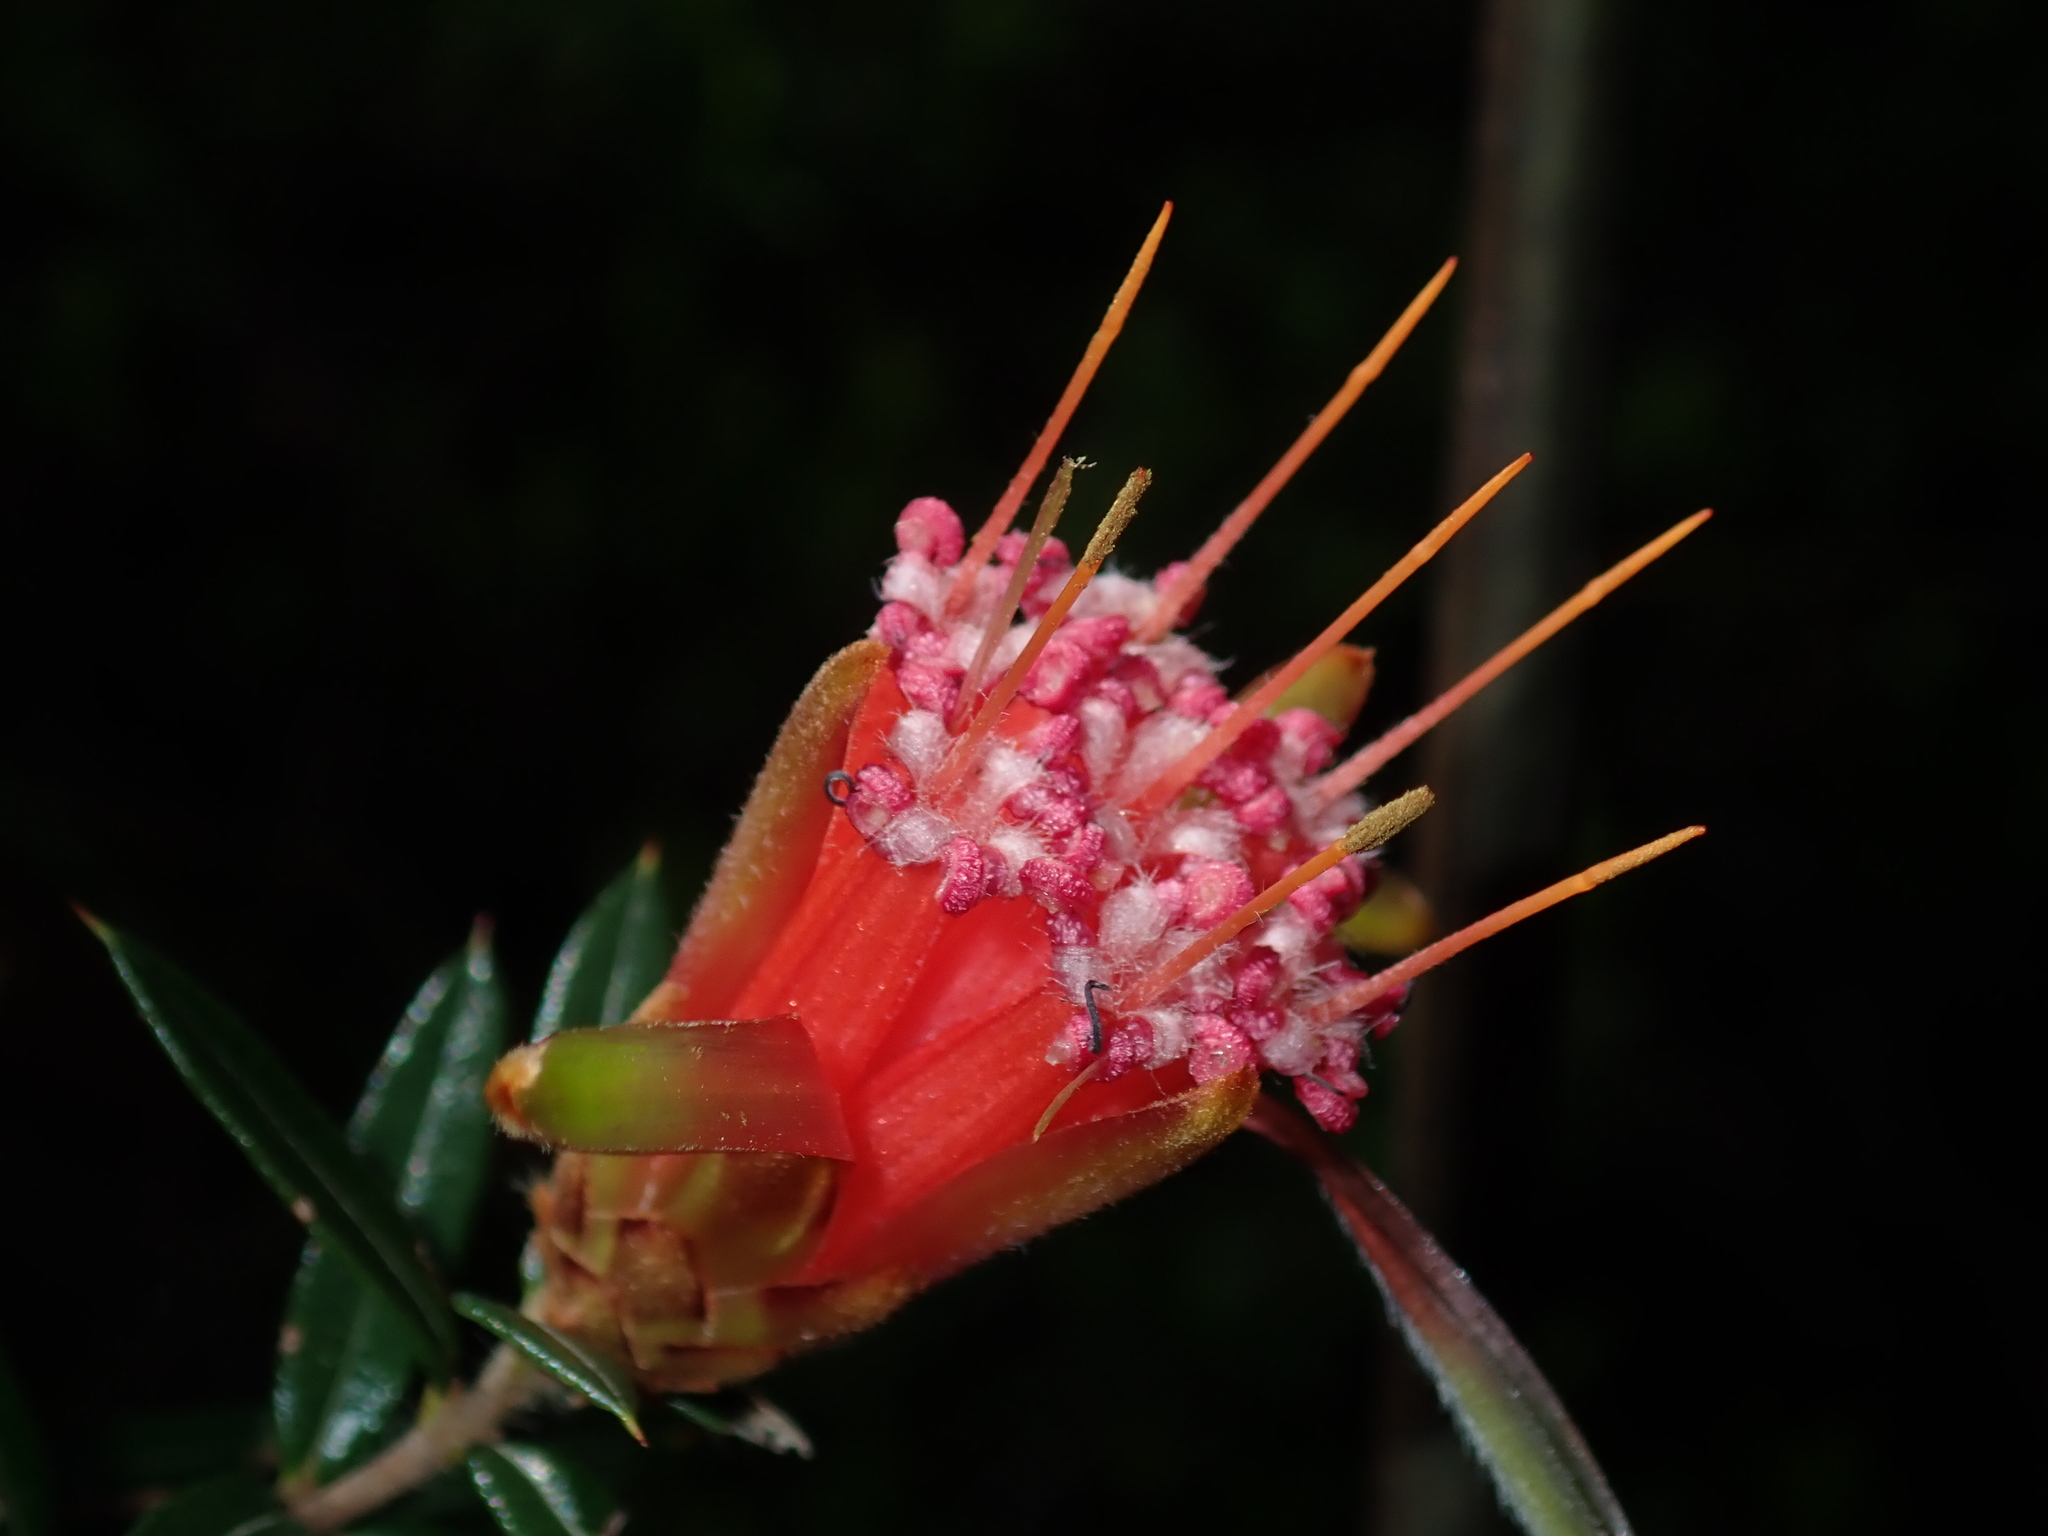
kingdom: Plantae
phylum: Tracheophyta
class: Magnoliopsida
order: Proteales
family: Proteaceae
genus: Lambertia
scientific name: Lambertia formosa
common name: Mountain-devil
